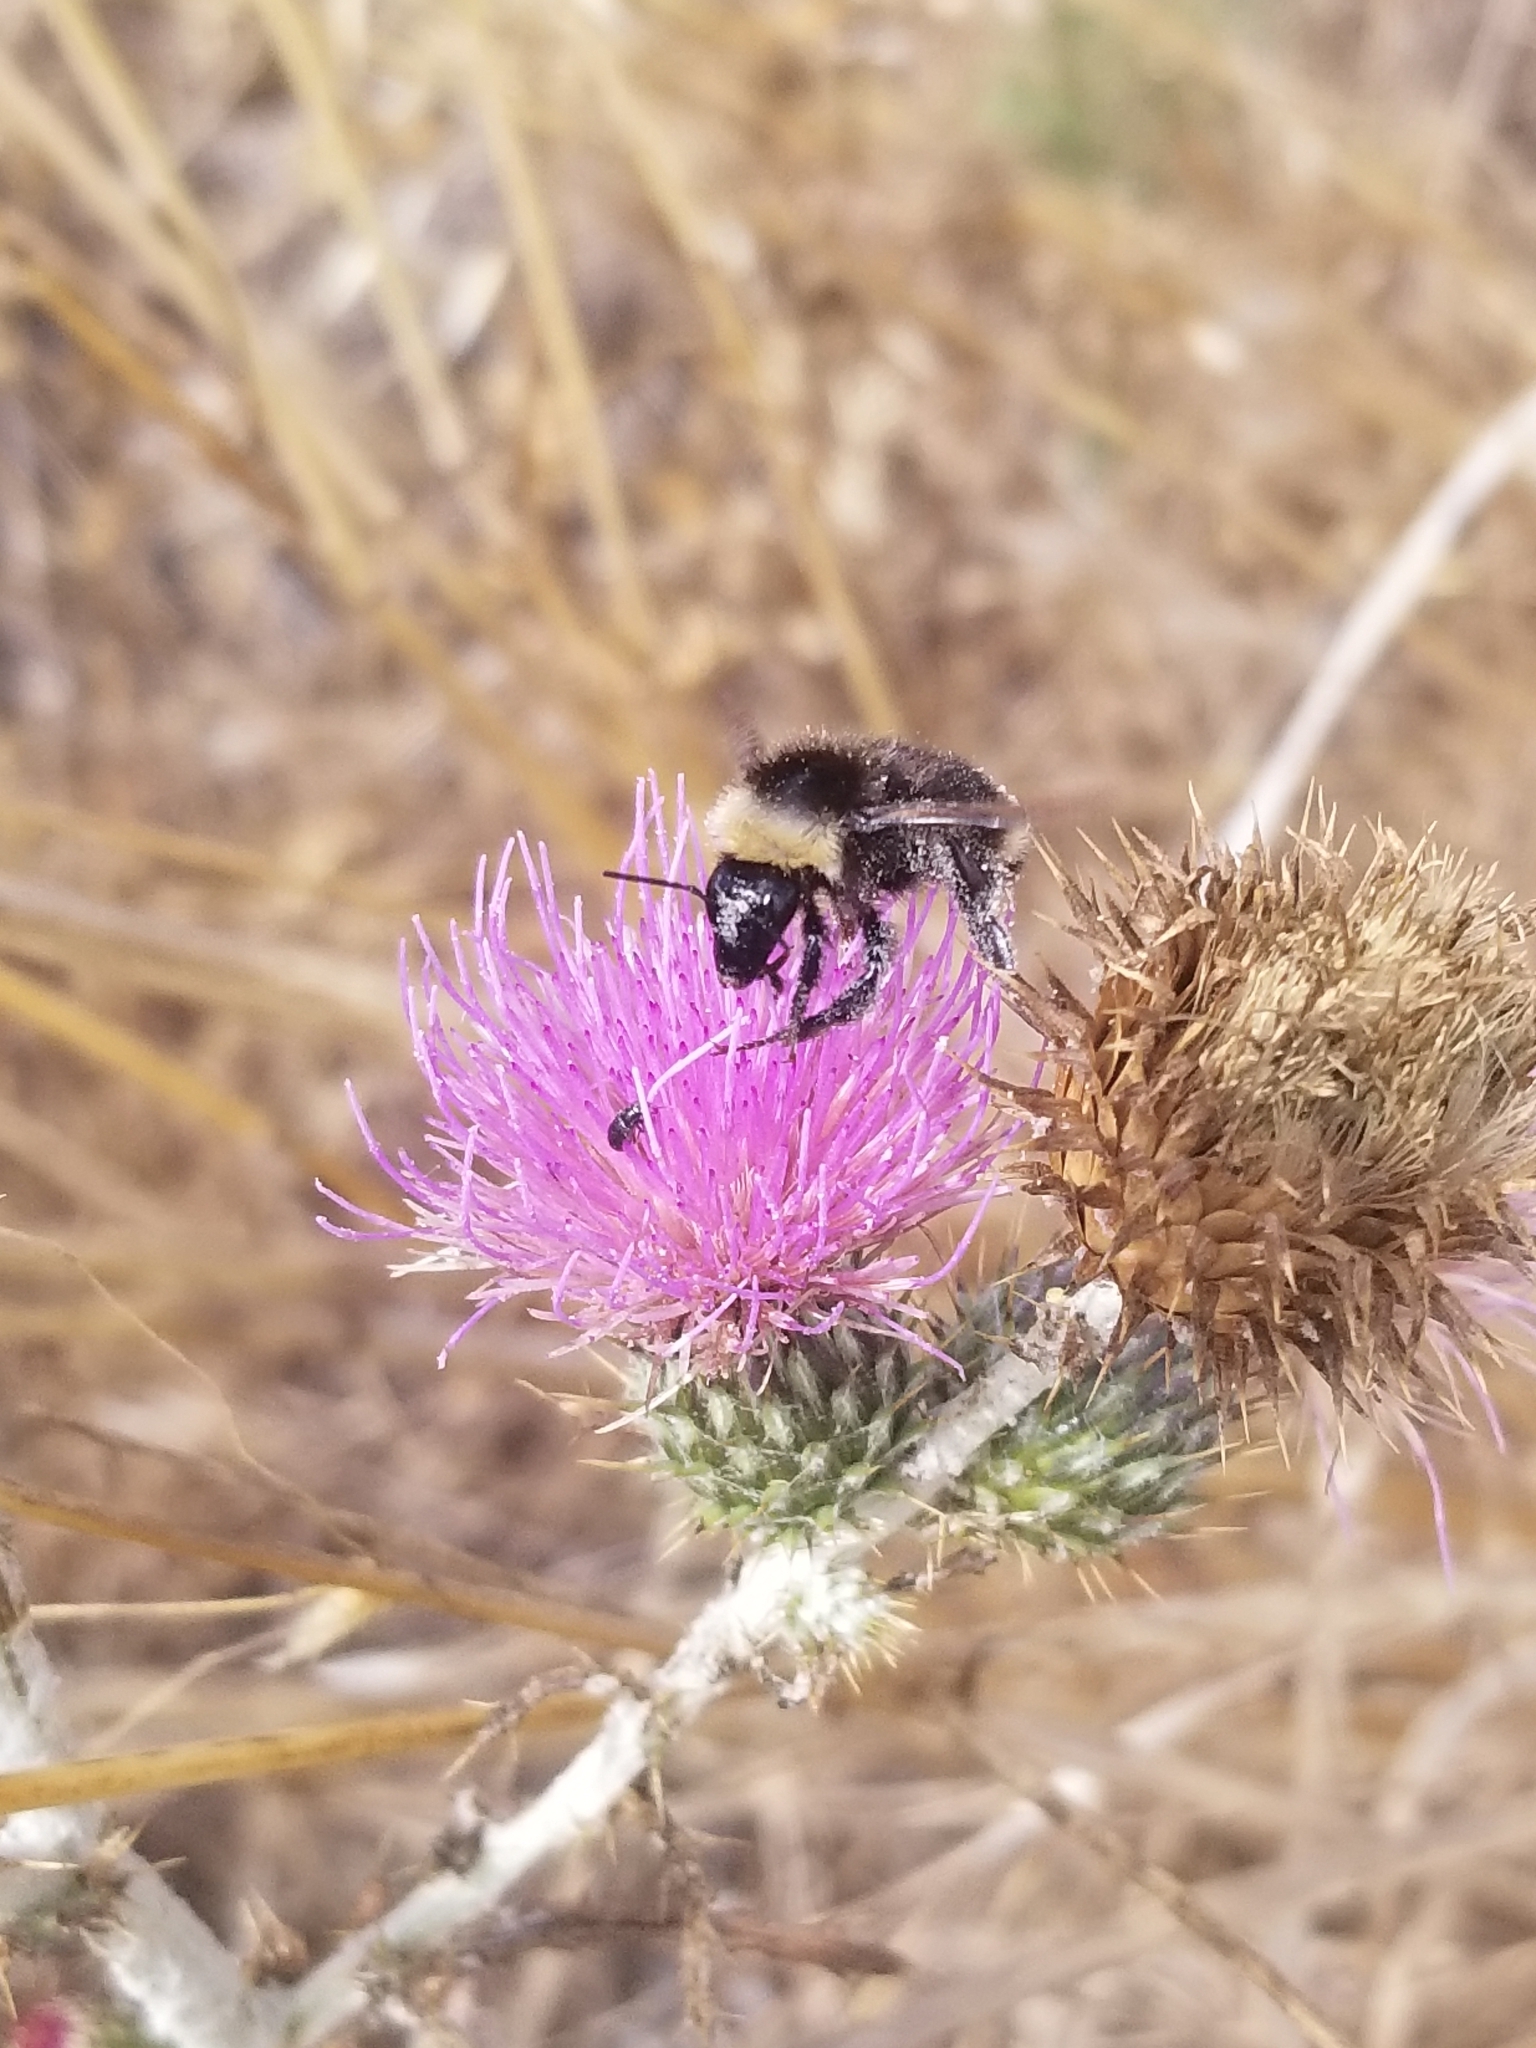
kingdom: Animalia
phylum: Arthropoda
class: Insecta
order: Hymenoptera
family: Apidae
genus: Bombus
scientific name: Bombus californicus
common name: California bumble bee
